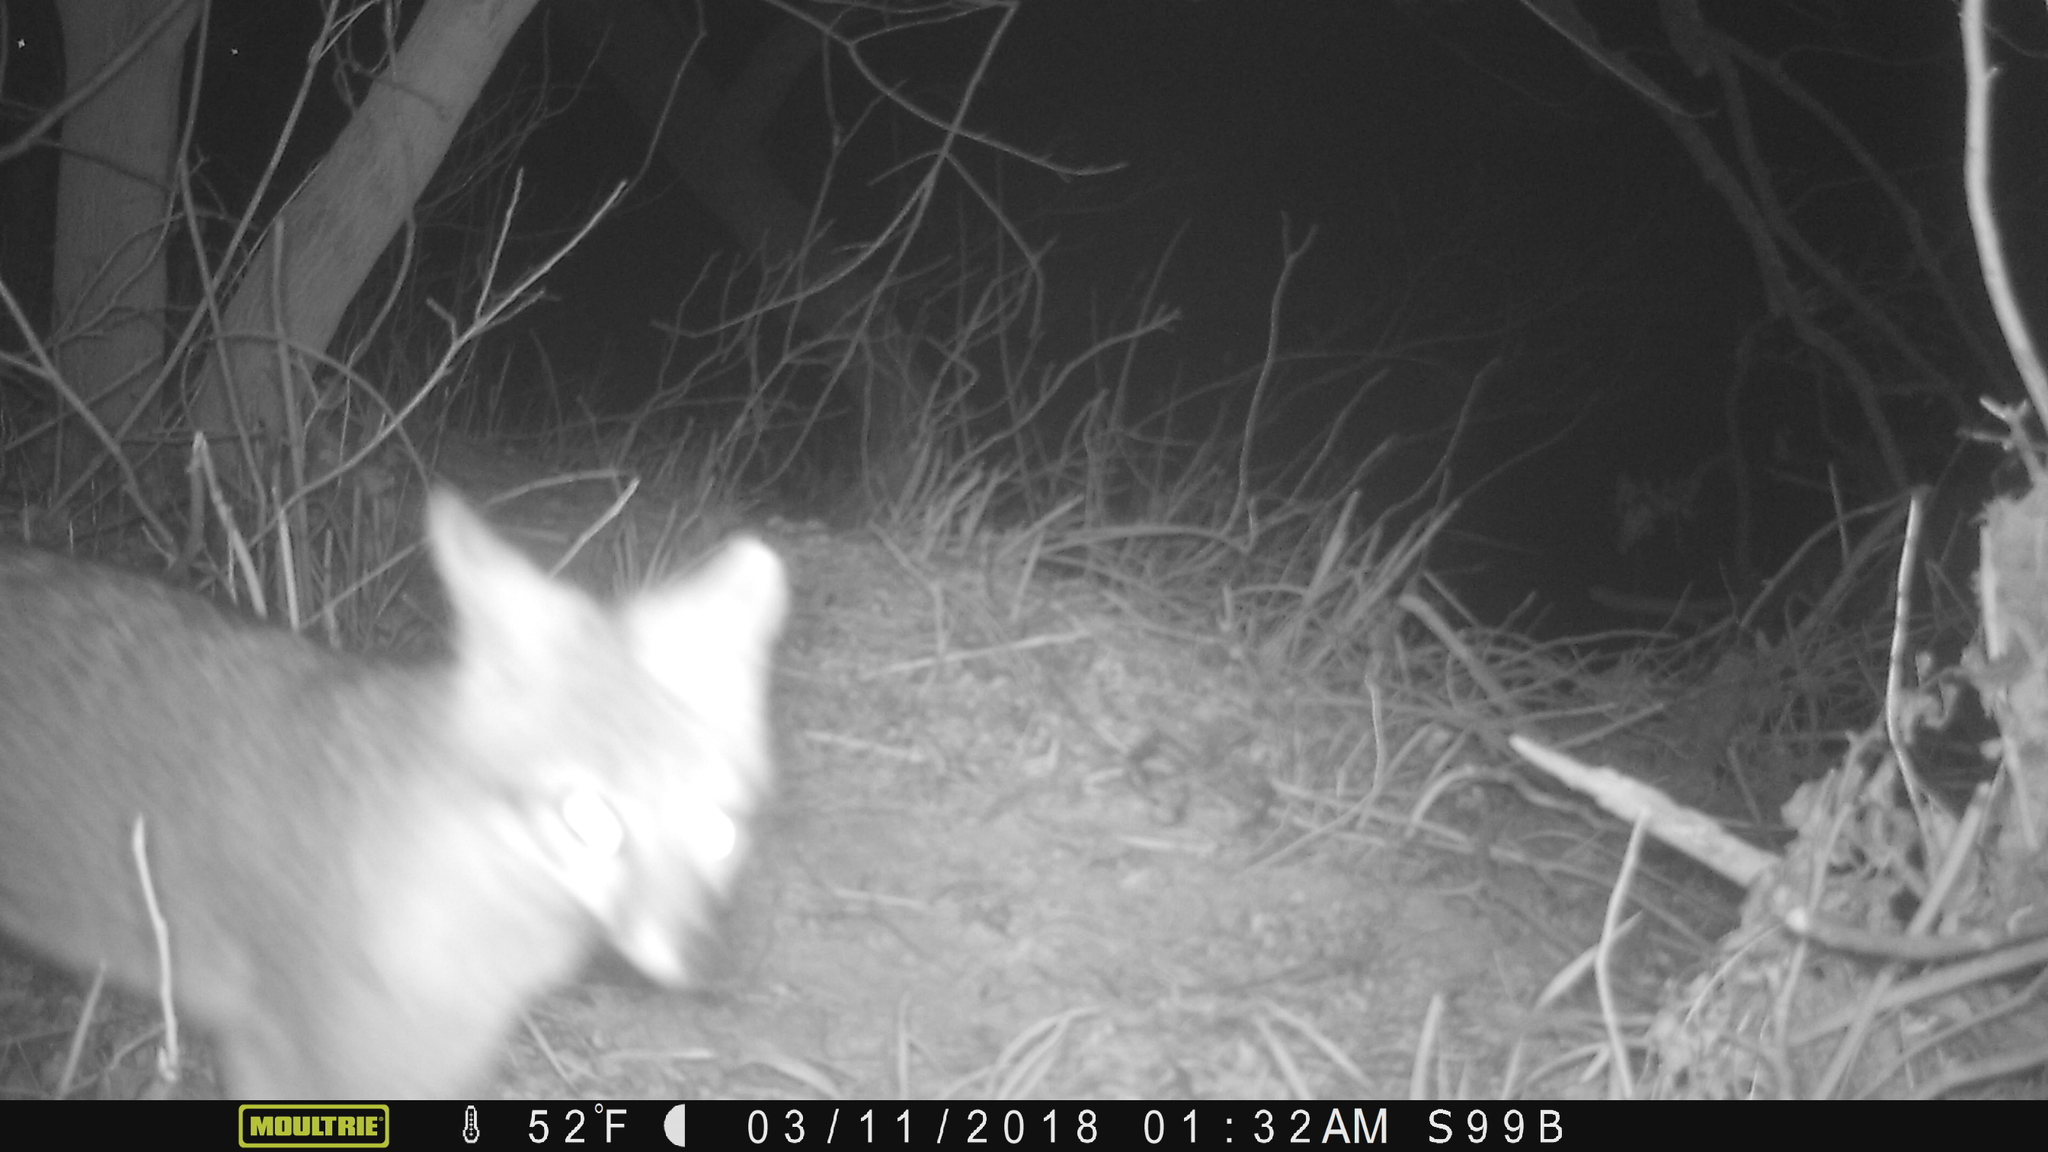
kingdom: Animalia
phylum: Chordata
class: Mammalia
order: Carnivora
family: Canidae
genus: Urocyon
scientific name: Urocyon cinereoargenteus
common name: Gray fox
